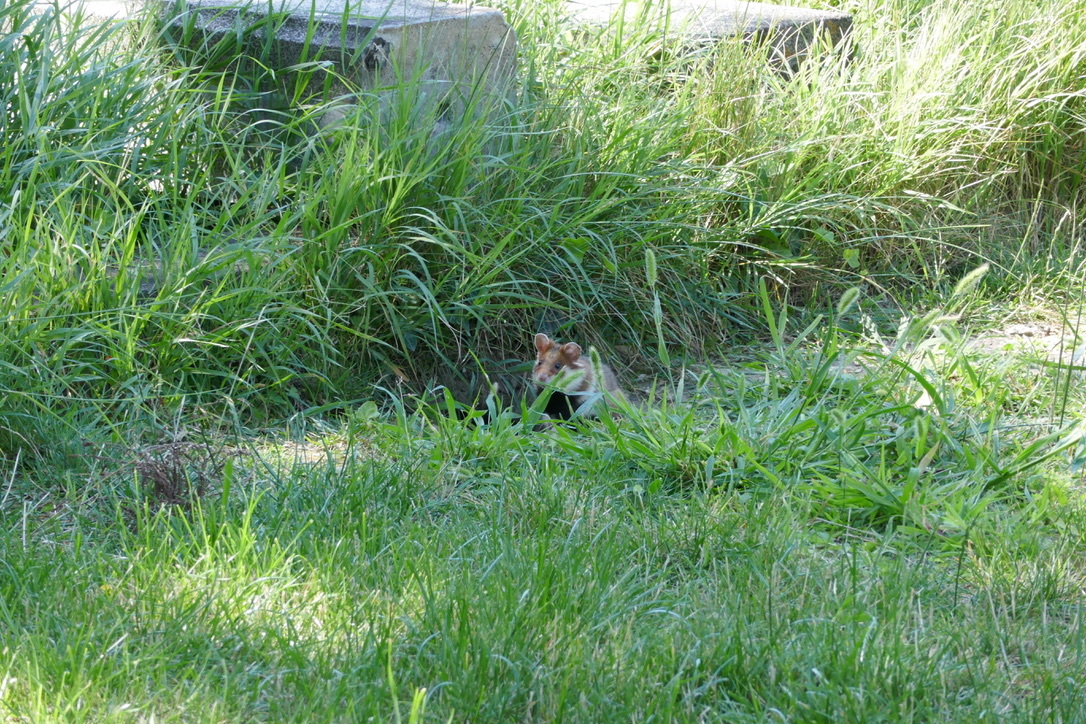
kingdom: Animalia
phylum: Chordata
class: Mammalia
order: Rodentia
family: Cricetidae
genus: Cricetus
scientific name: Cricetus cricetus
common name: Common hamster
